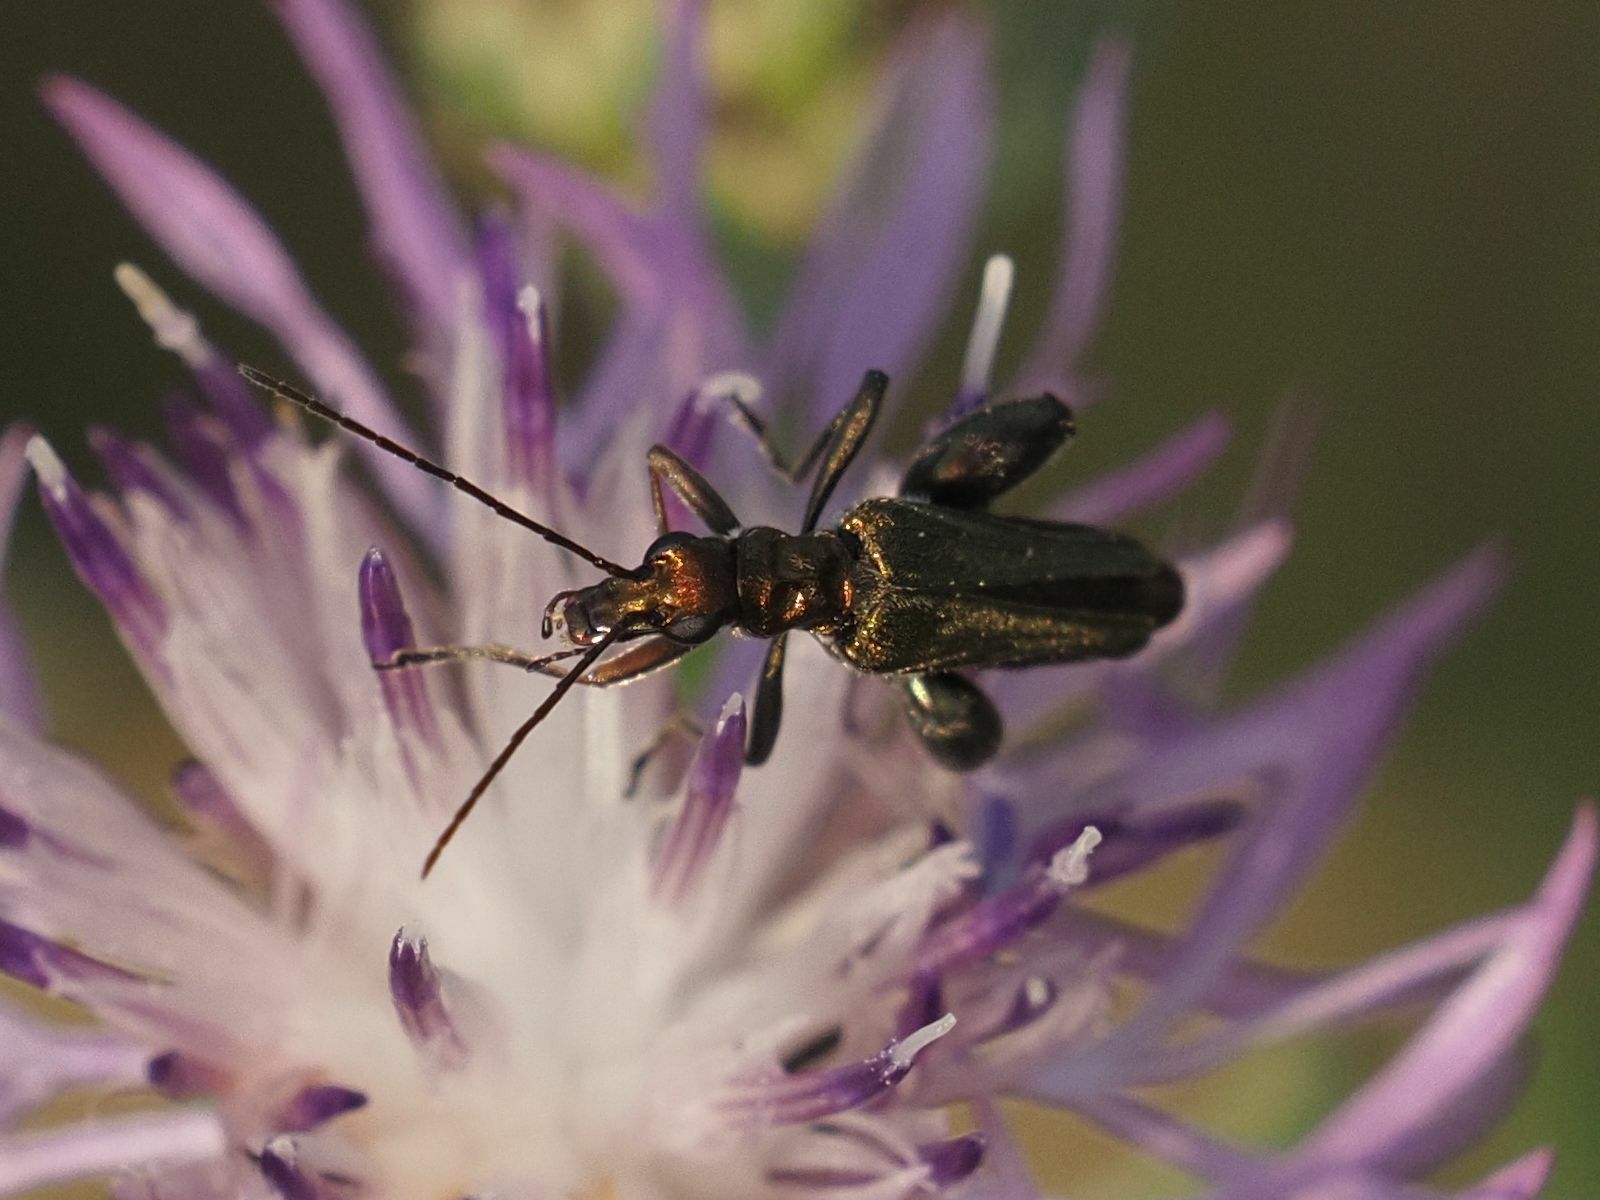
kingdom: Animalia
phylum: Arthropoda
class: Insecta
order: Coleoptera
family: Oedemeridae
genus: Oedemera
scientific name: Oedemera flavipes
